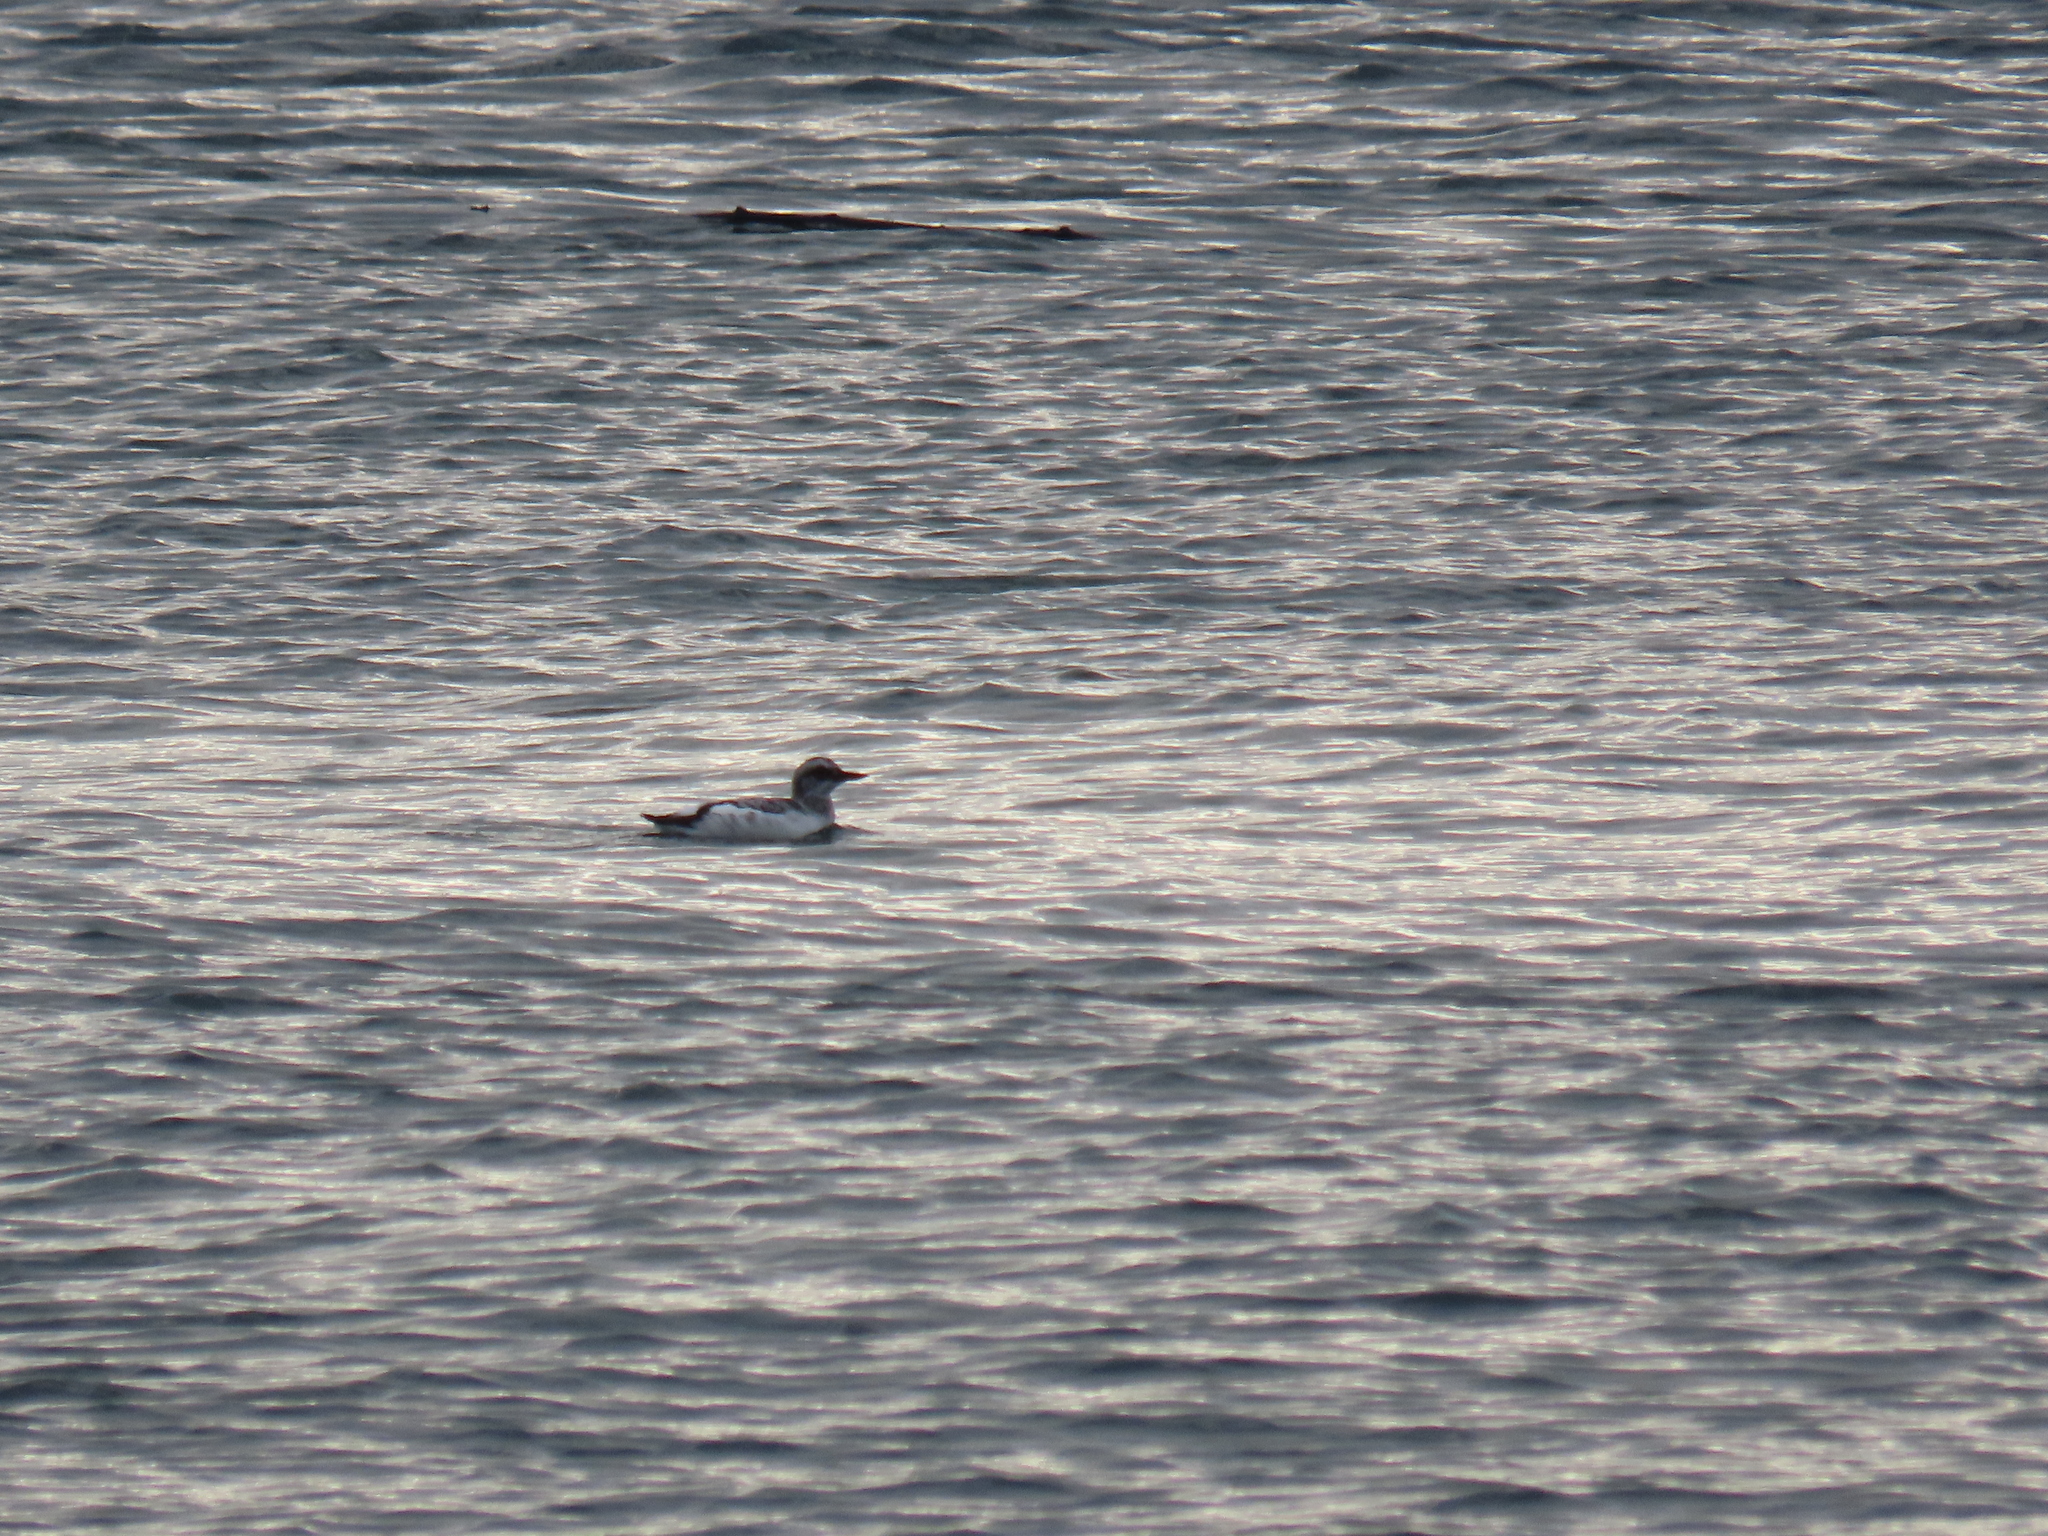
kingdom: Animalia
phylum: Chordata
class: Aves
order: Charadriiformes
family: Alcidae
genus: Cepphus
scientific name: Cepphus columba
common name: Pigeon guillemot
